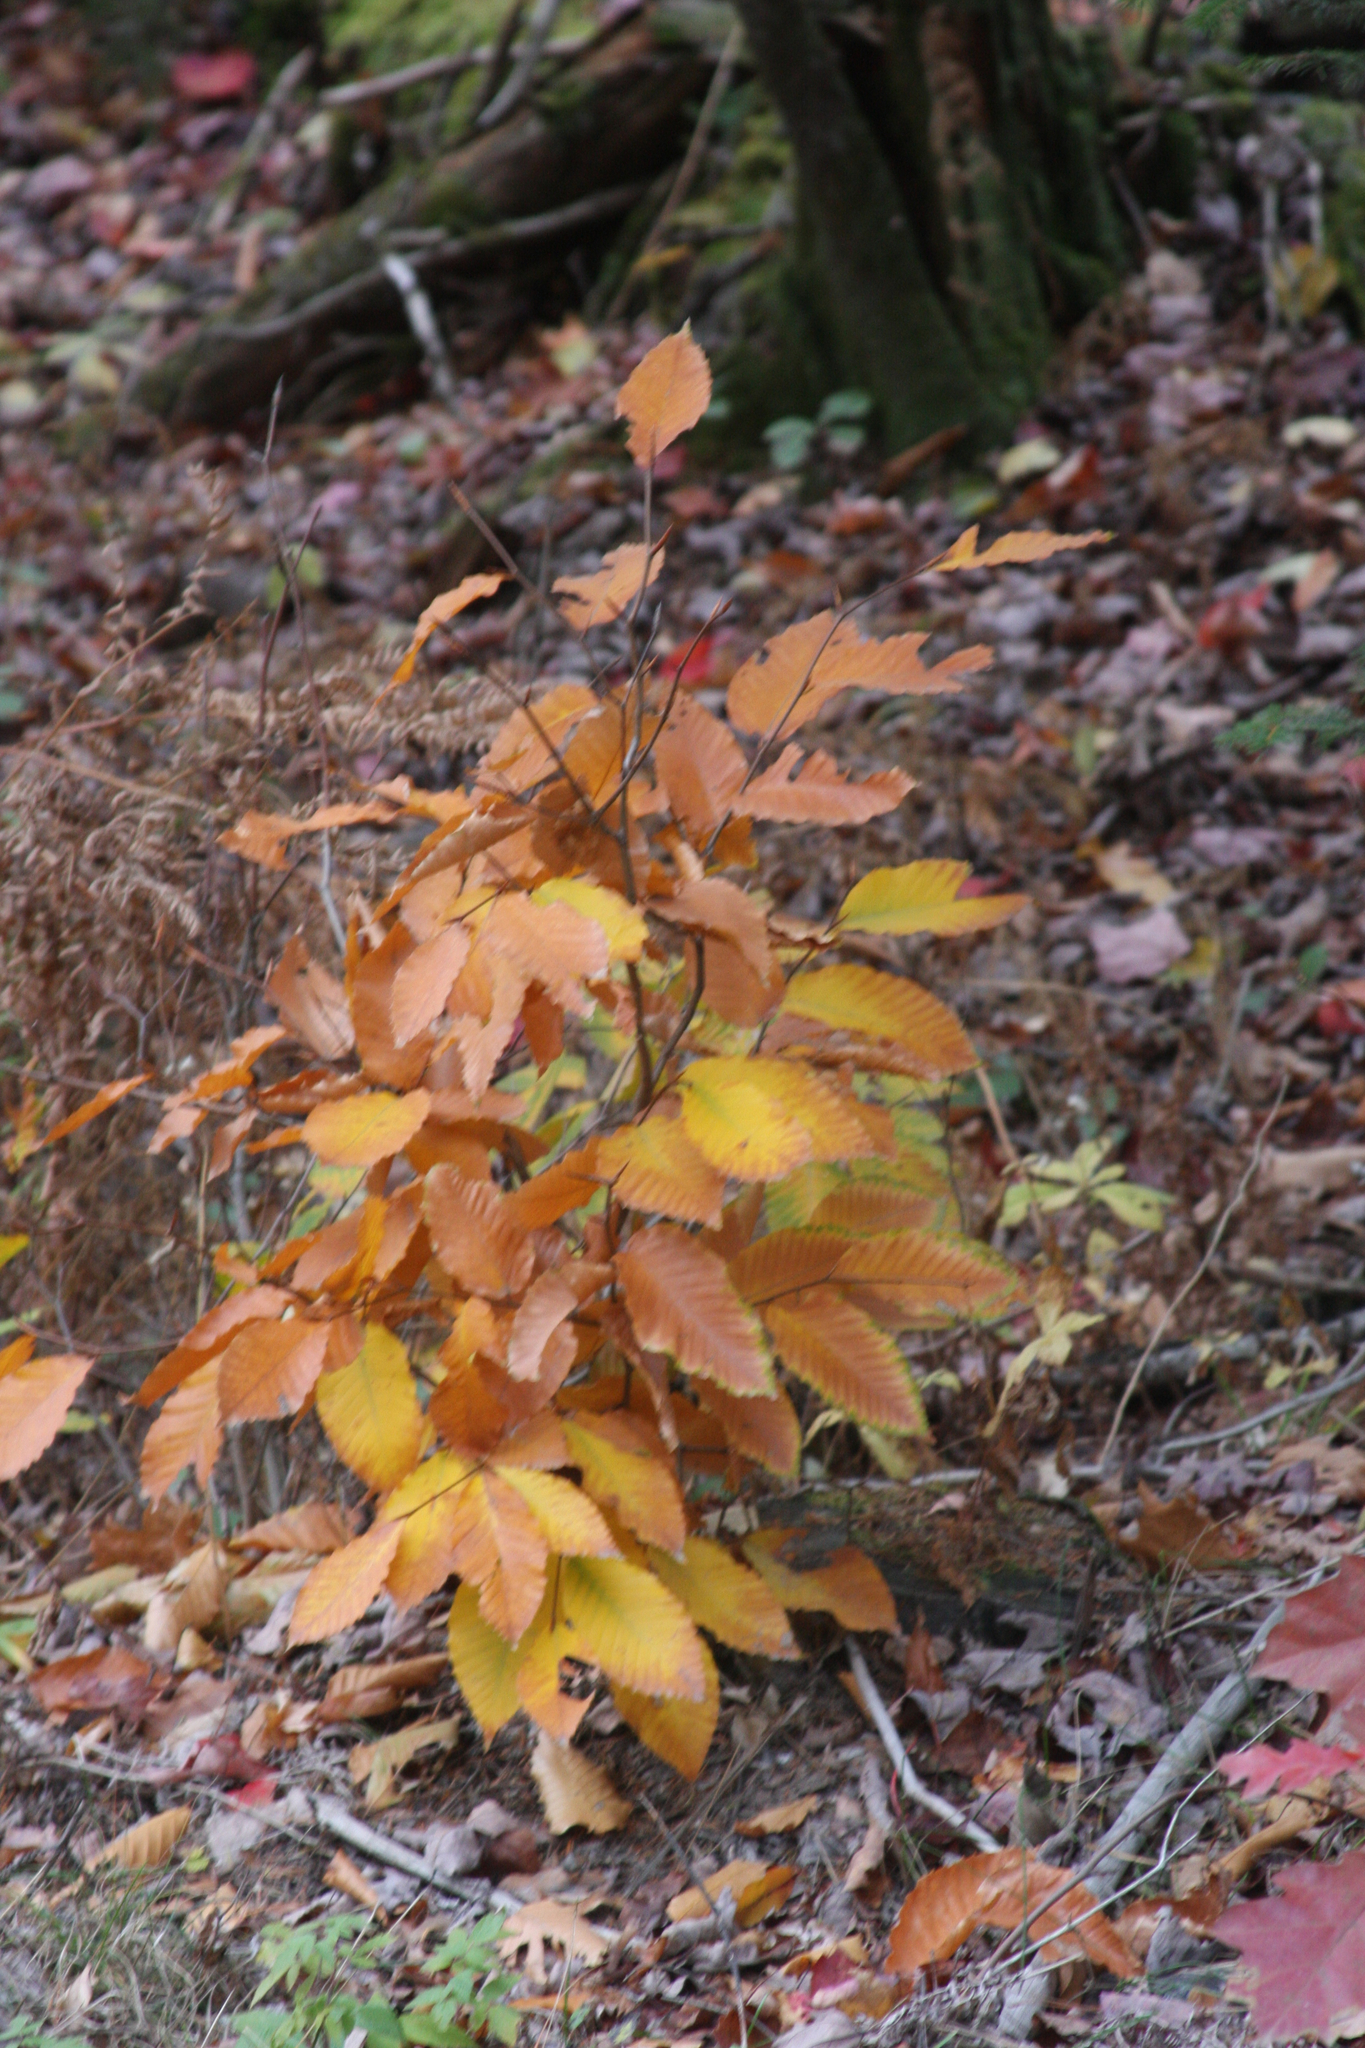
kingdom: Plantae
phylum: Tracheophyta
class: Magnoliopsida
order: Fagales
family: Fagaceae
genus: Fagus
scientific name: Fagus grandifolia
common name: American beech
